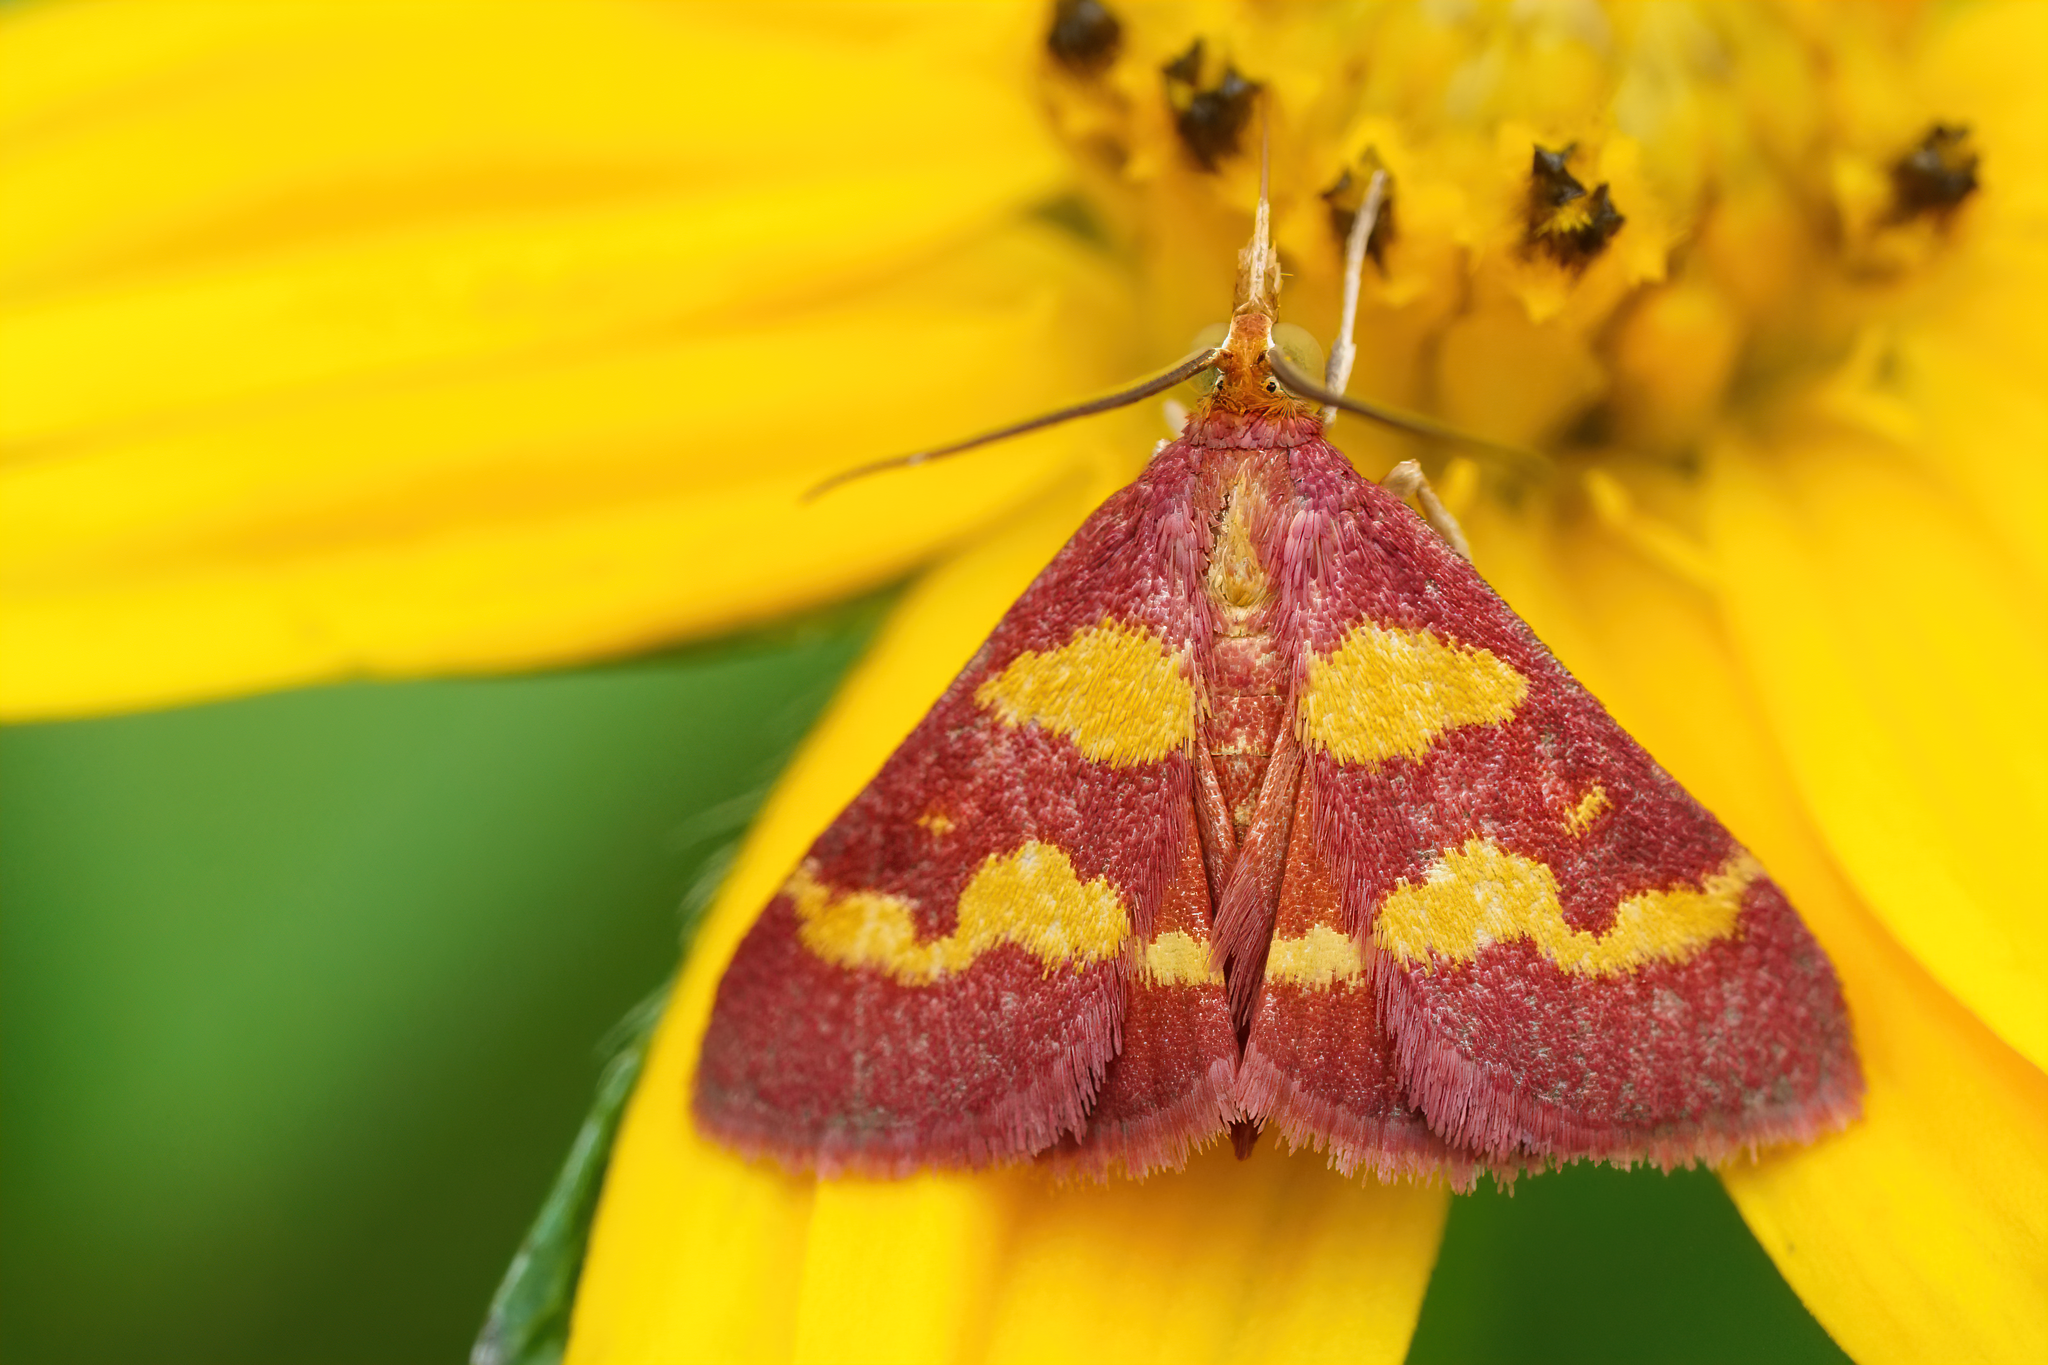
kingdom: Animalia
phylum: Arthropoda
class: Insecta
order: Lepidoptera
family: Crambidae
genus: Pyrausta
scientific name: Pyrausta tyralis
